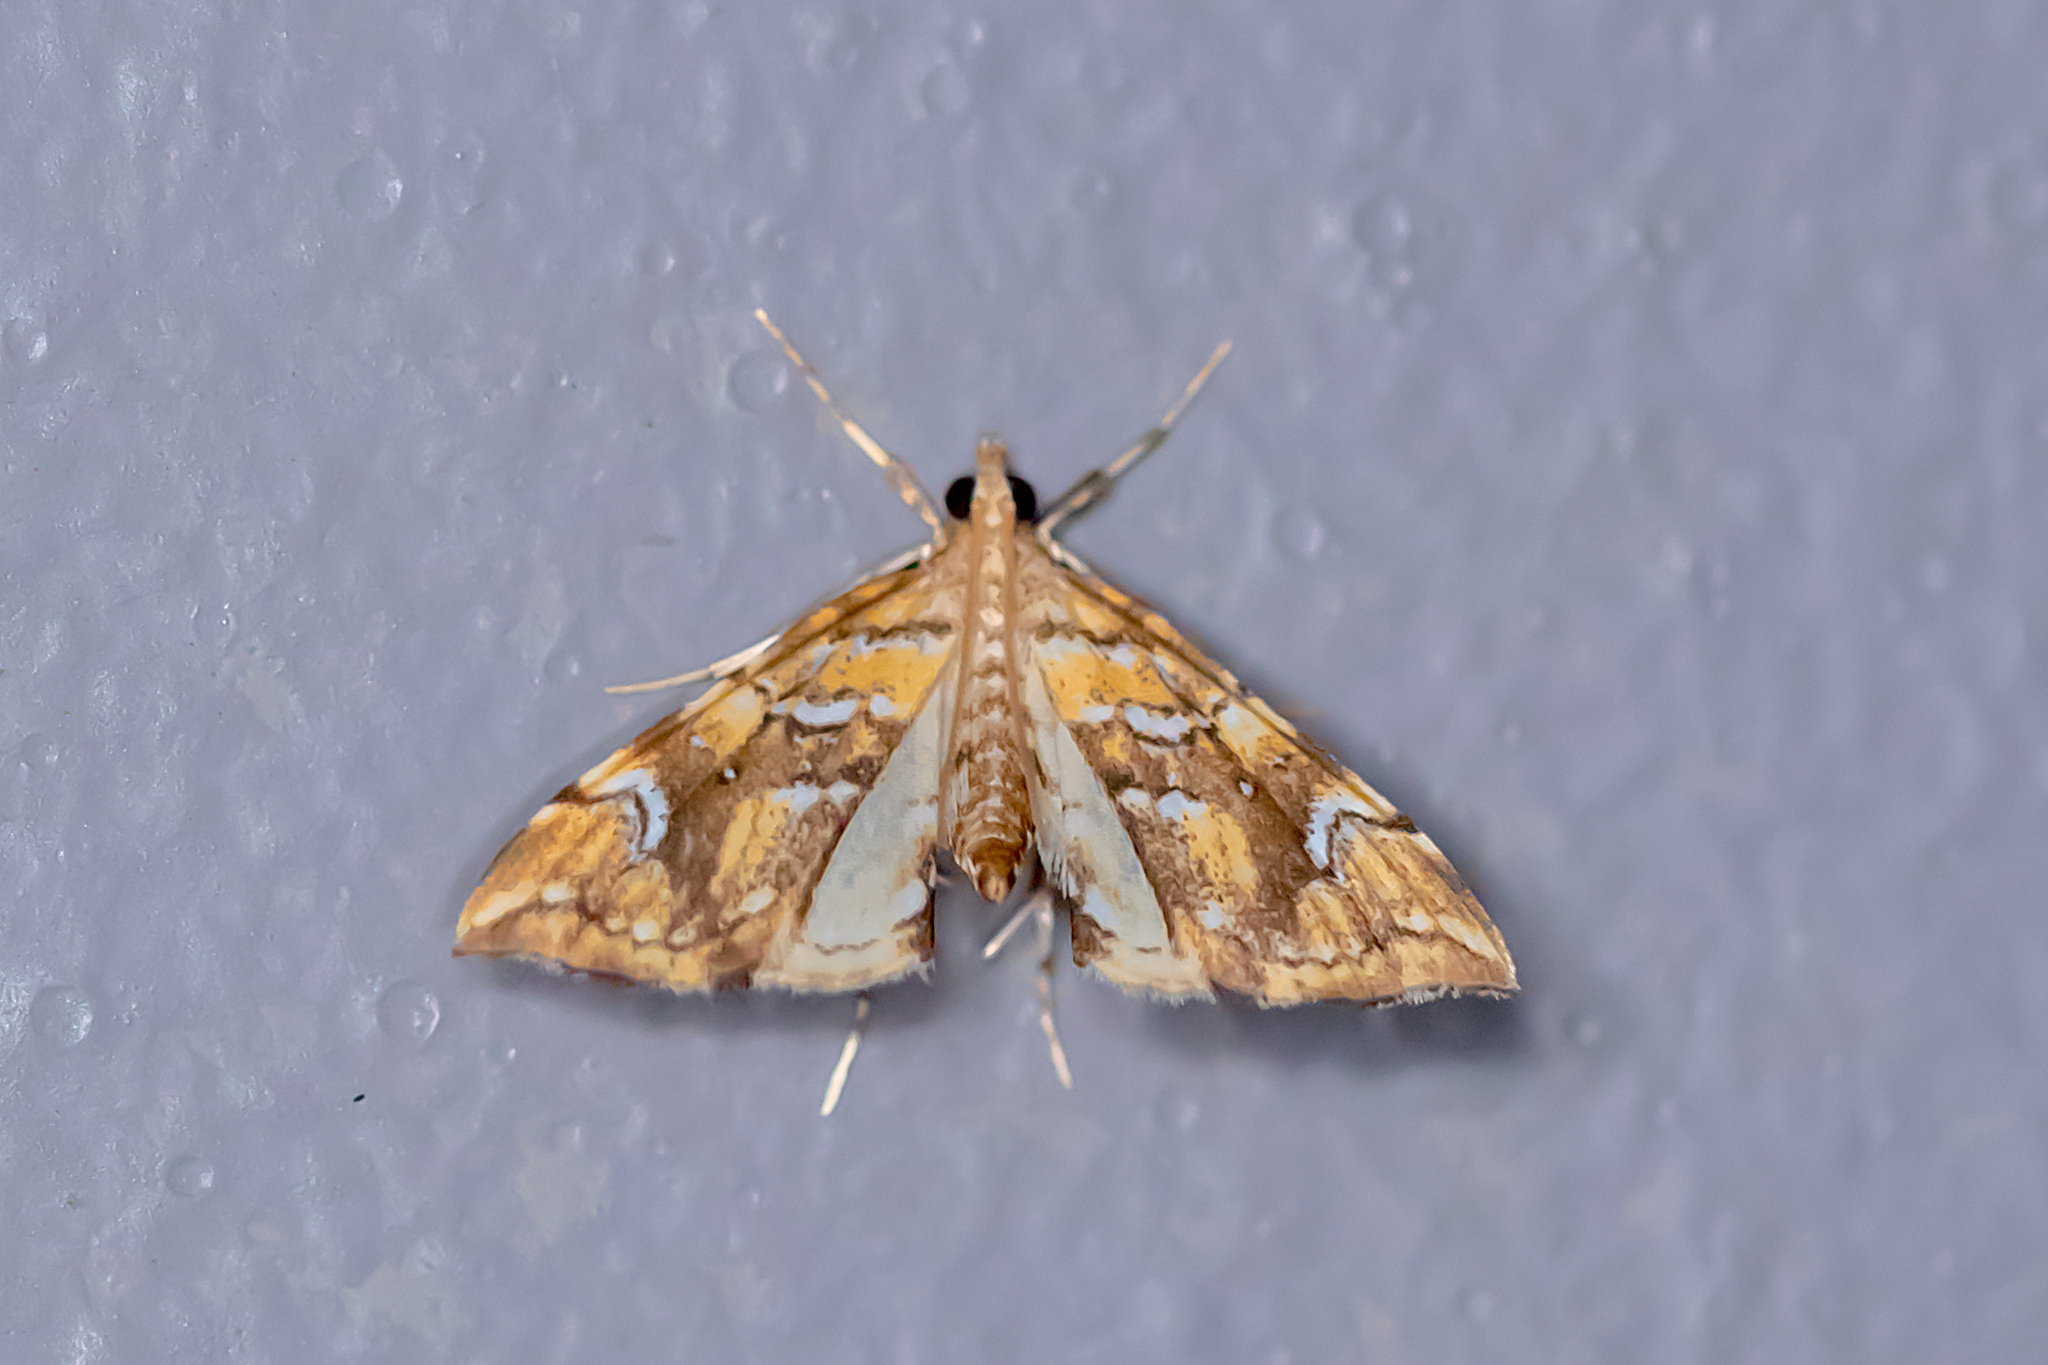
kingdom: Animalia
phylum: Arthropoda
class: Insecta
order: Lepidoptera
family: Pyralidae
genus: Musotima
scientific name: Musotima nitidalis
